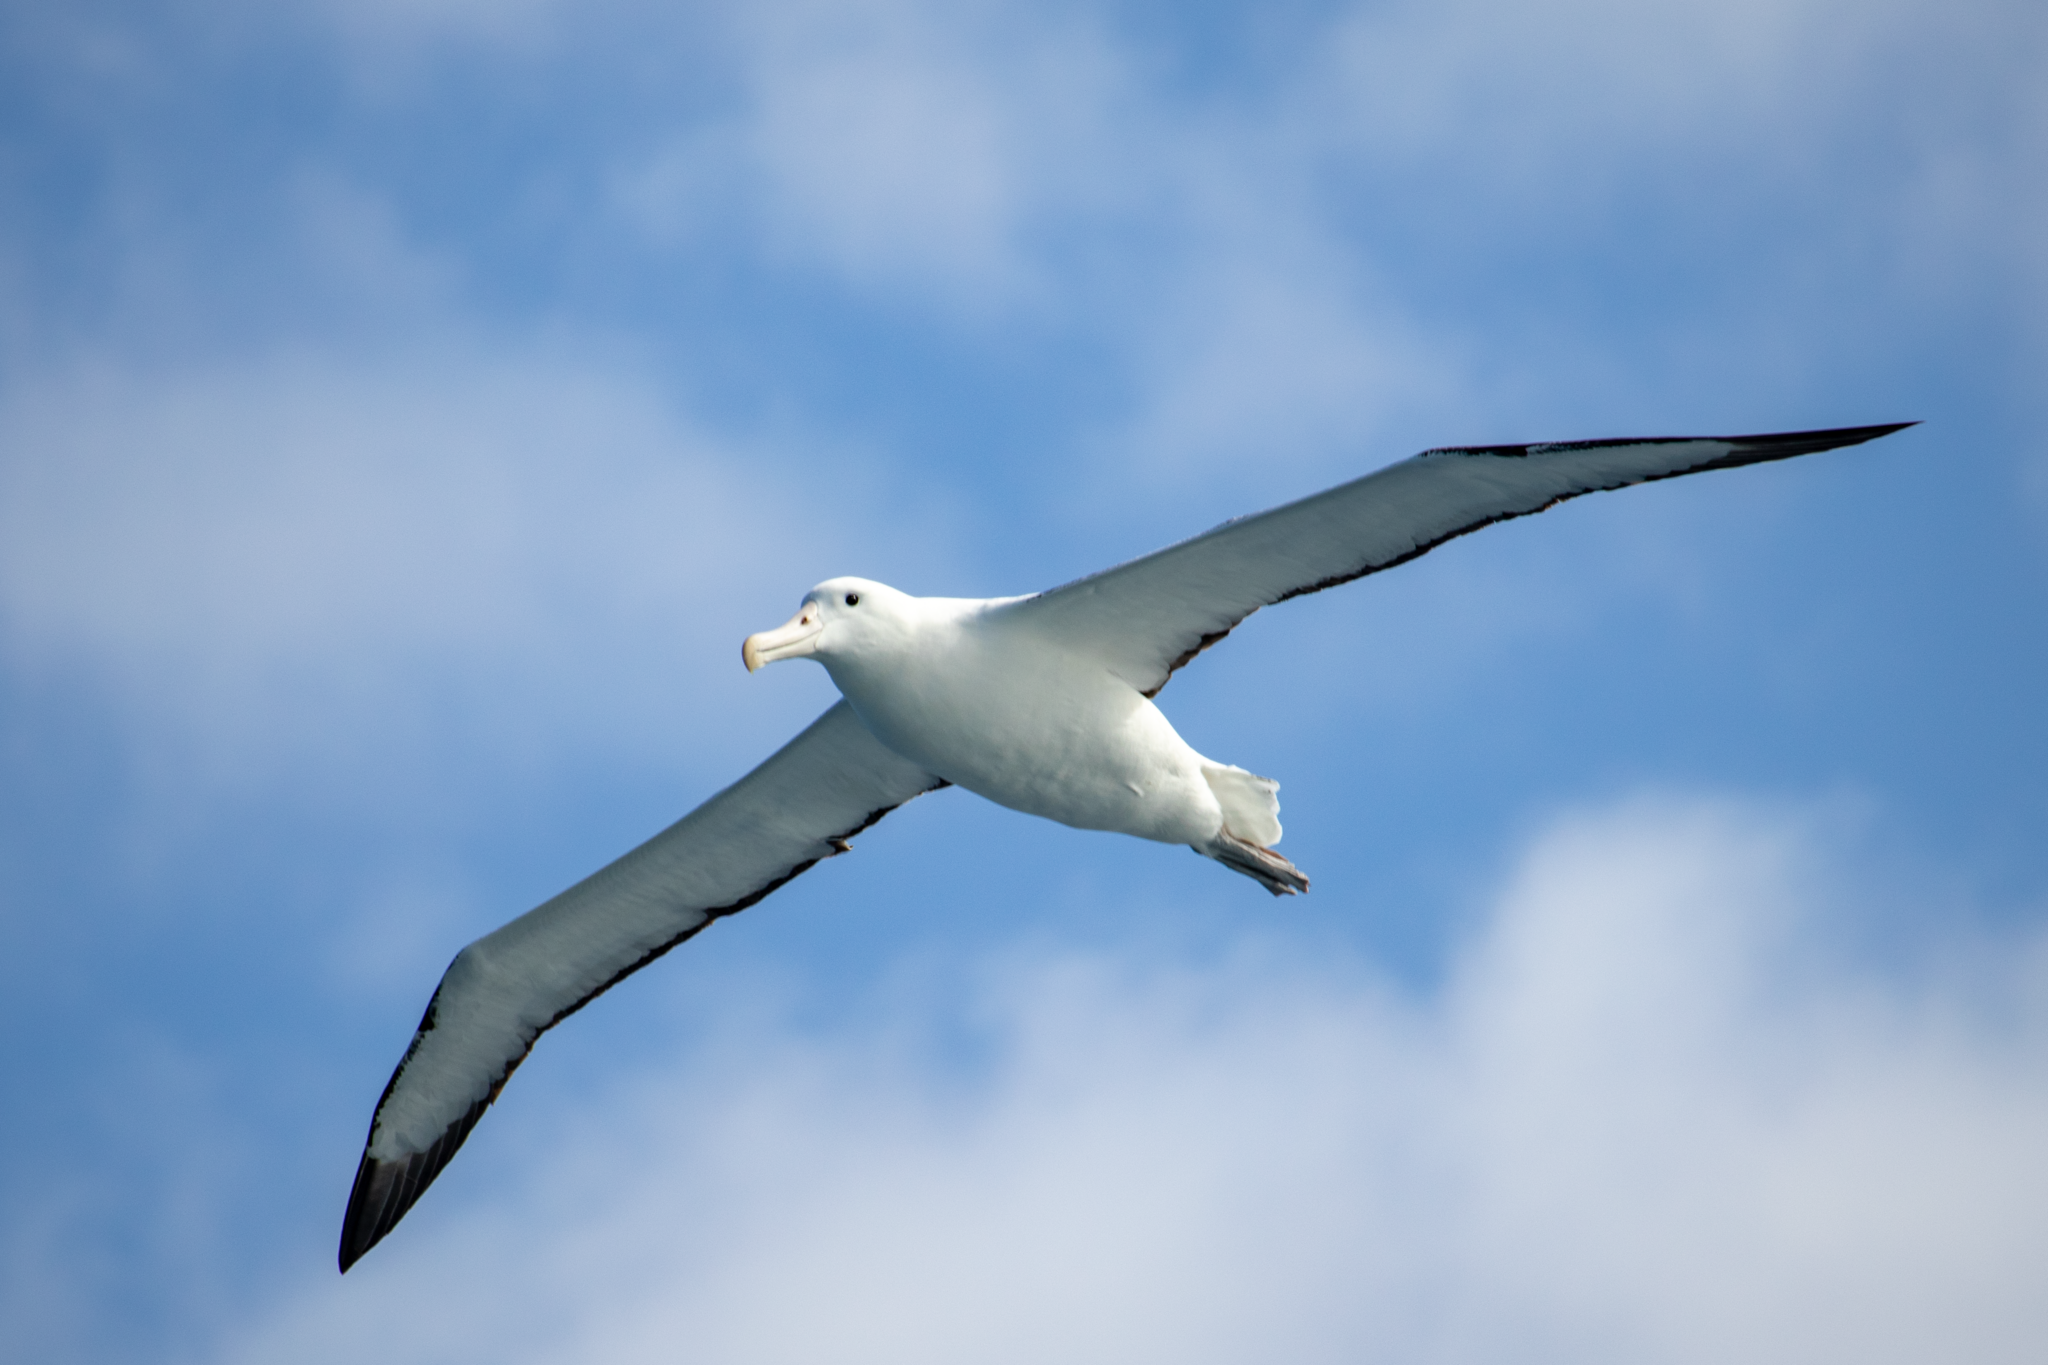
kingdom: Animalia
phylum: Chordata
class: Aves
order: Procellariiformes
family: Diomedeidae
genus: Diomedea
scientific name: Diomedea epomophora
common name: Southern royal albatross
